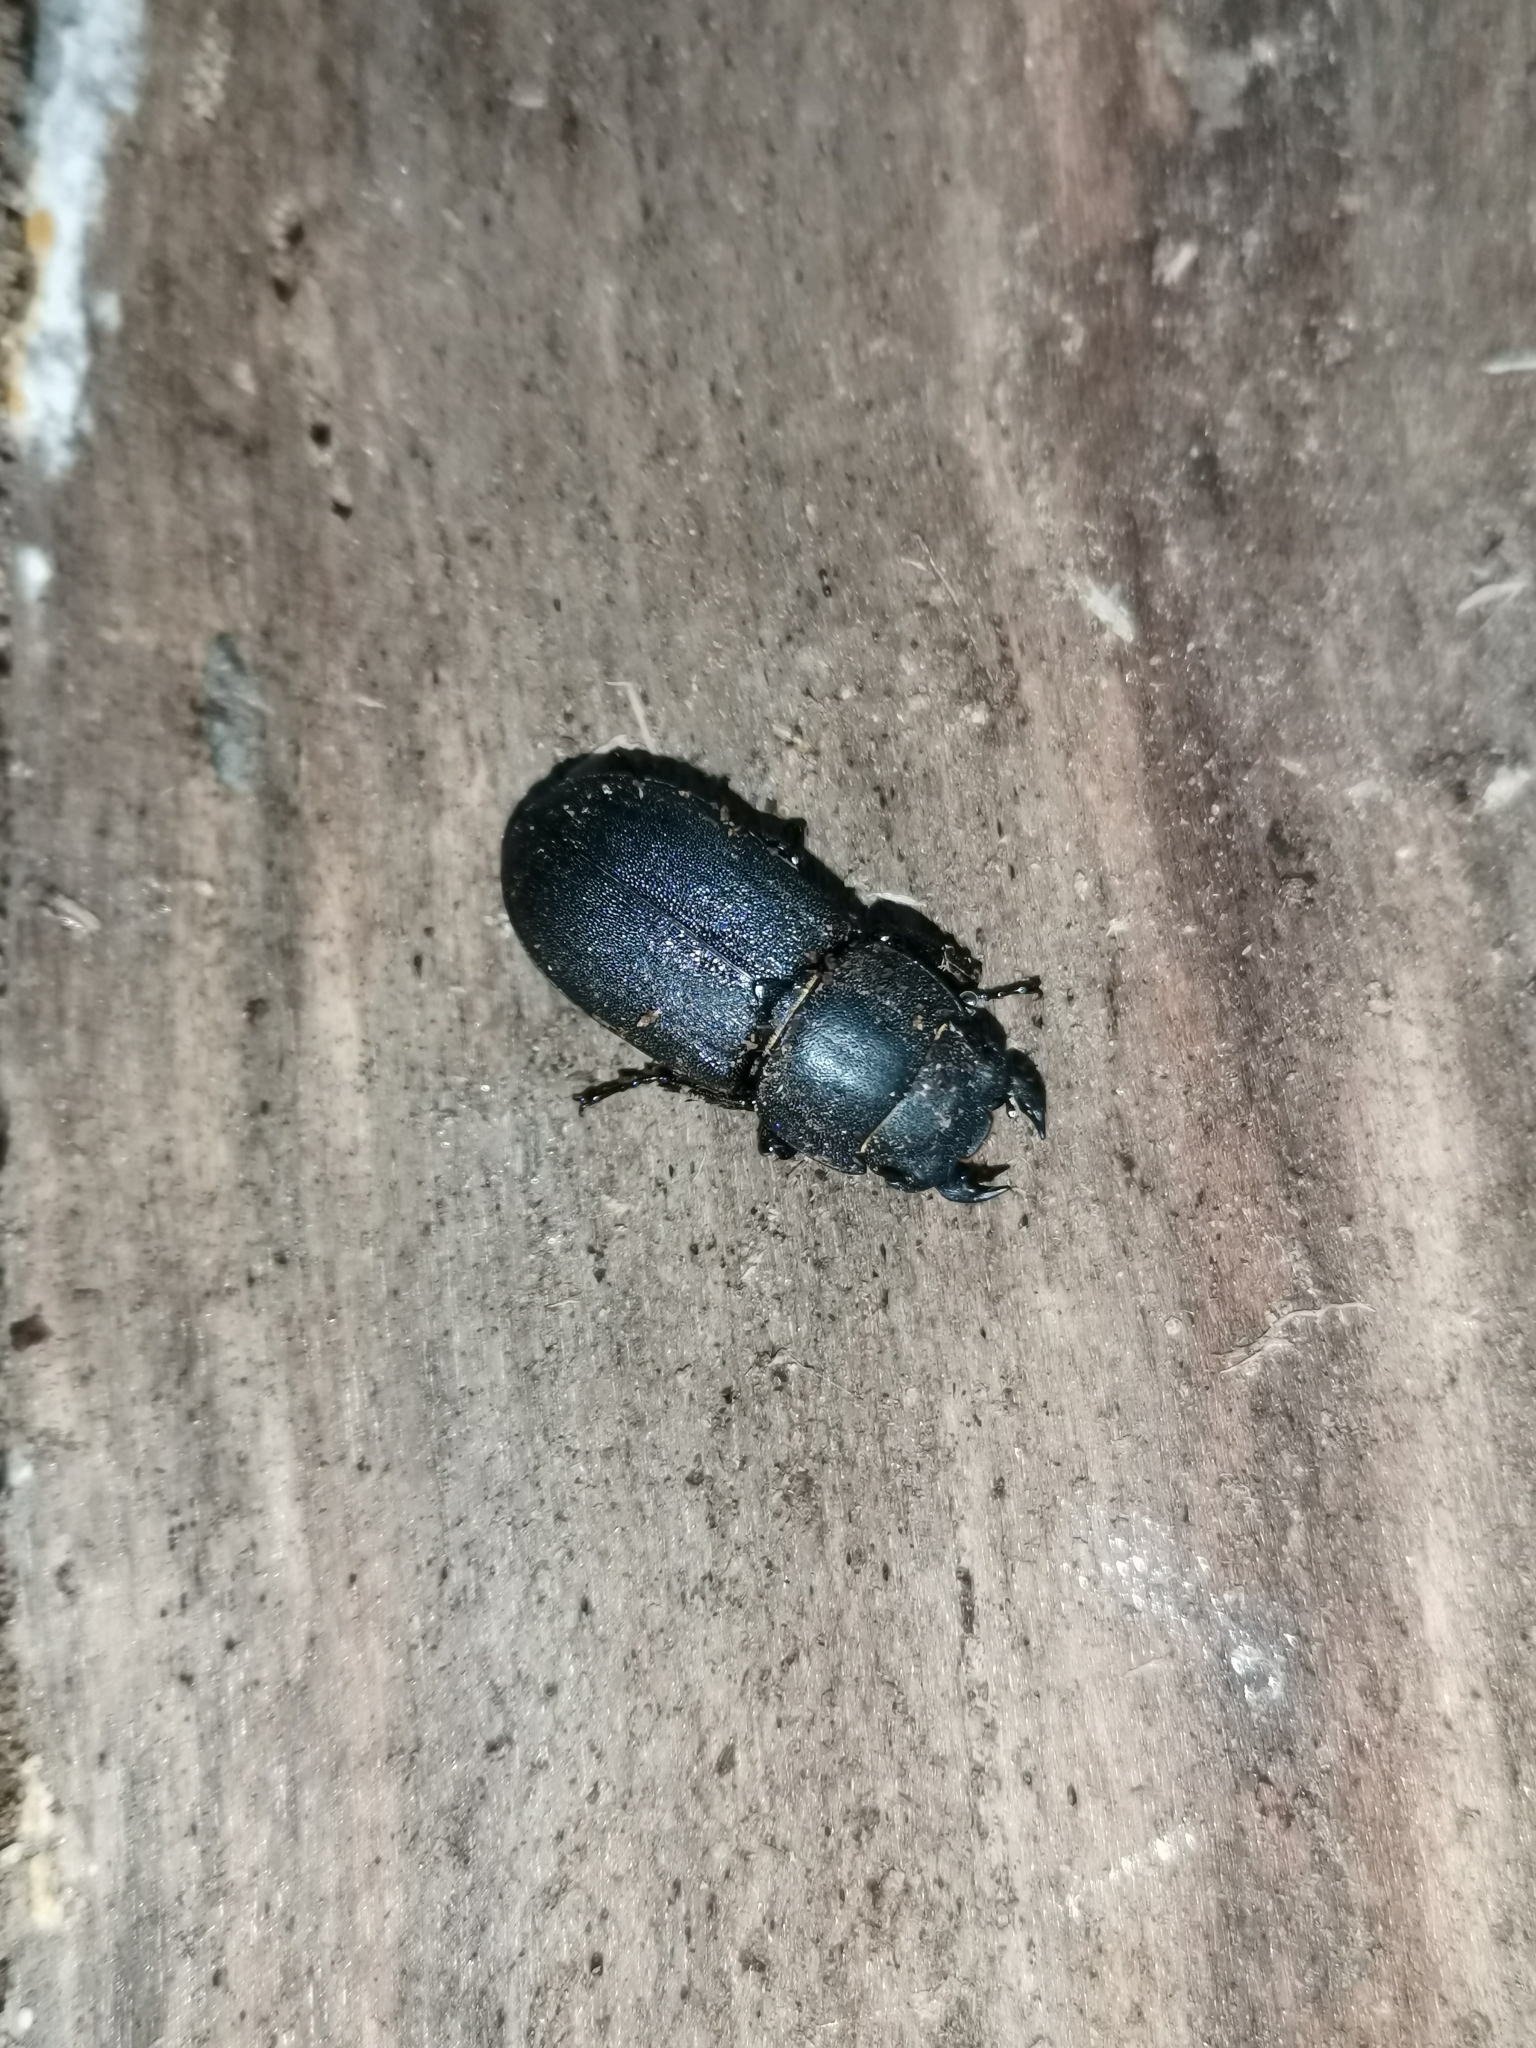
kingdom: Animalia
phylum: Arthropoda
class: Insecta
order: Coleoptera
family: Lucanidae
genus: Dorcus
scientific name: Dorcus parallelipipedus
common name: Lesser stag beetle
